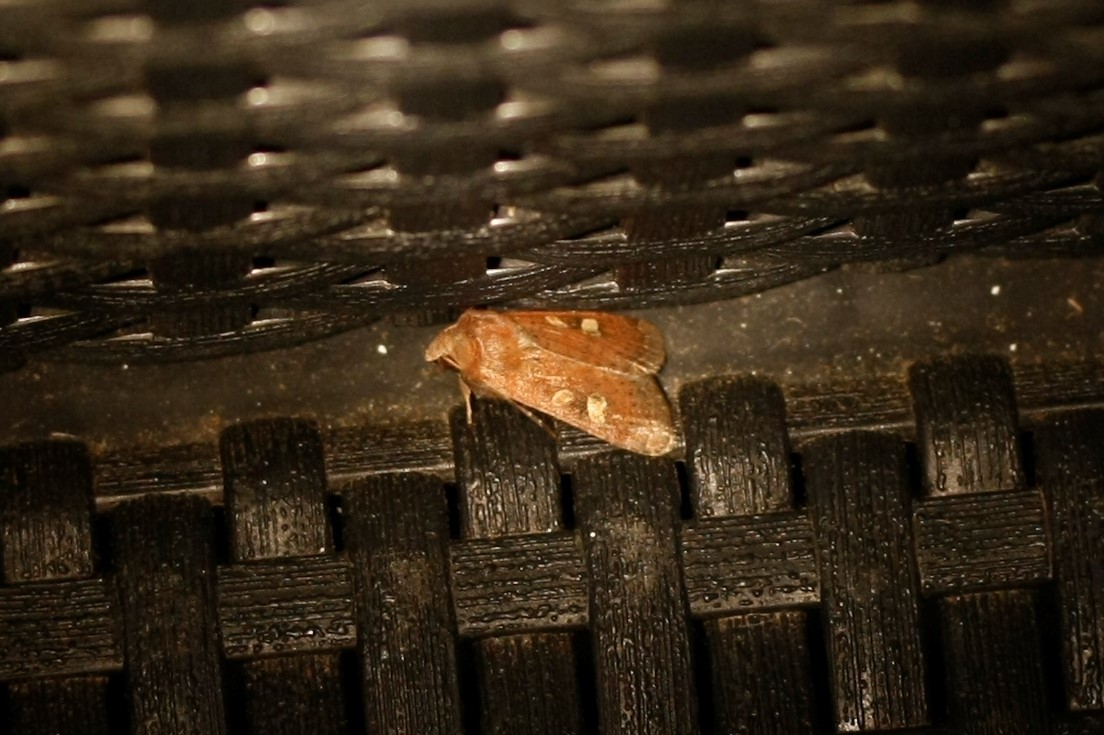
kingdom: Animalia
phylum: Arthropoda
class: Insecta
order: Lepidoptera
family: Noctuidae
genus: Xestia
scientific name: Xestia xanthographa
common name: Square-spot rustic
